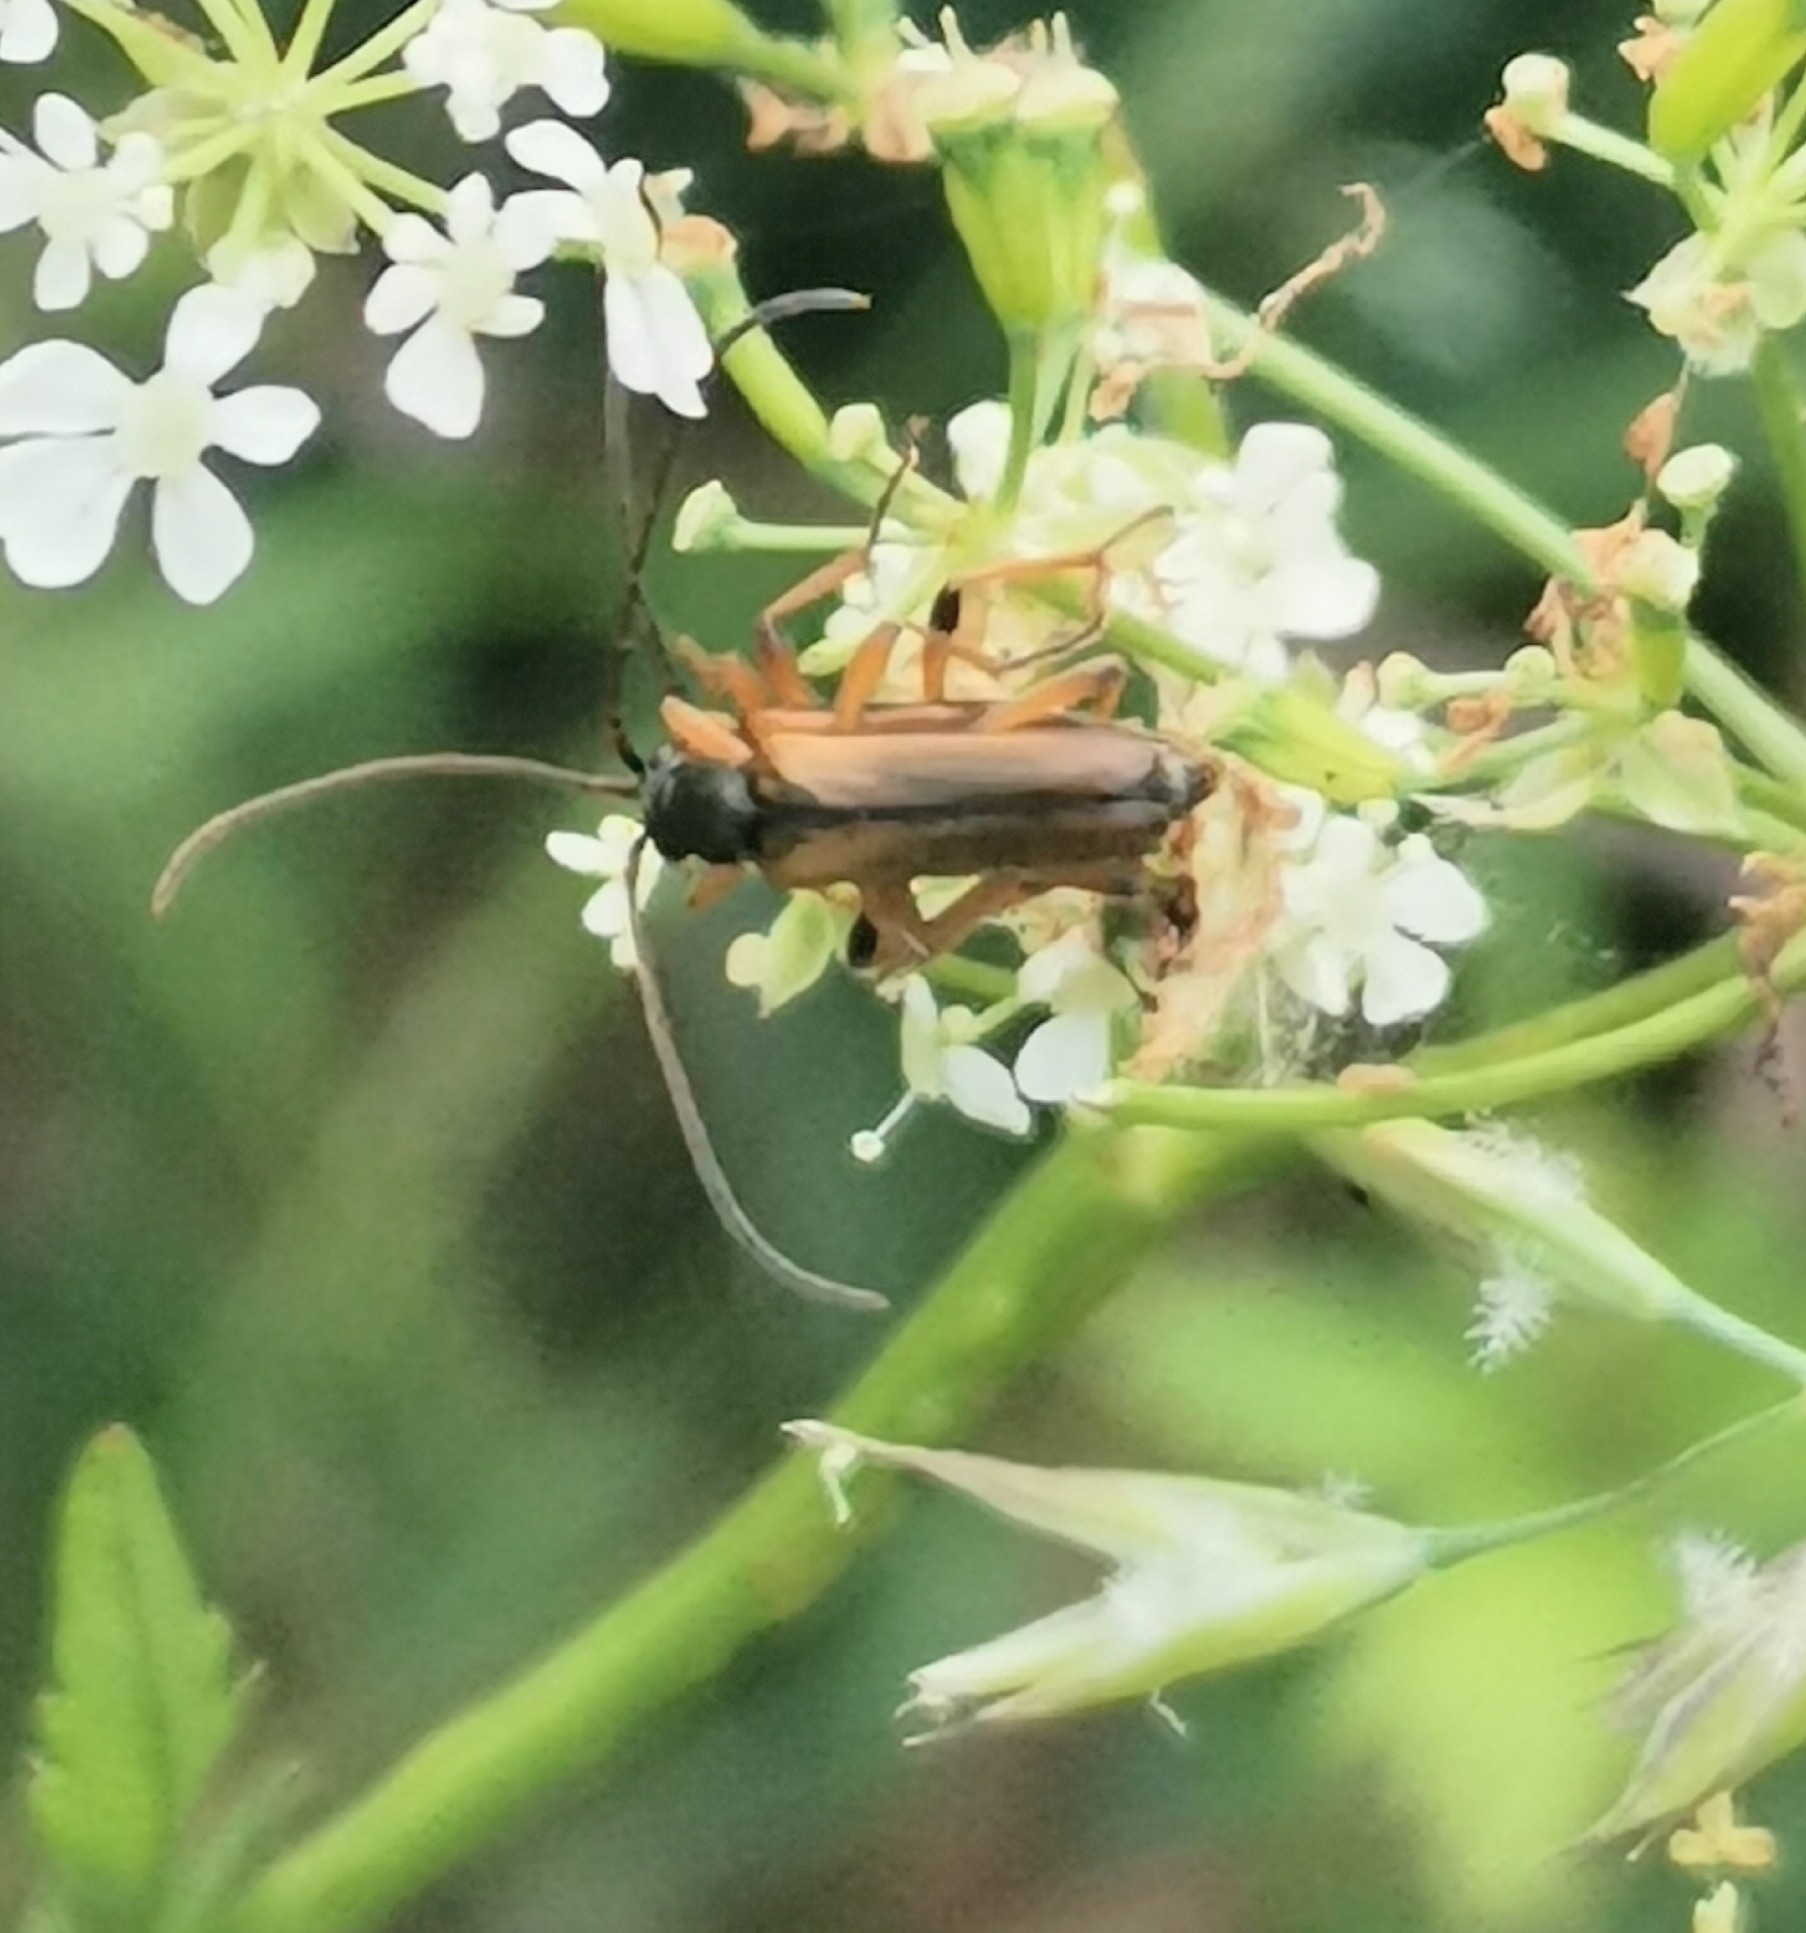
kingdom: Animalia
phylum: Arthropoda
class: Insecta
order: Coleoptera
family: Cerambycidae
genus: Alosterna
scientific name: Alosterna tabacicolor
